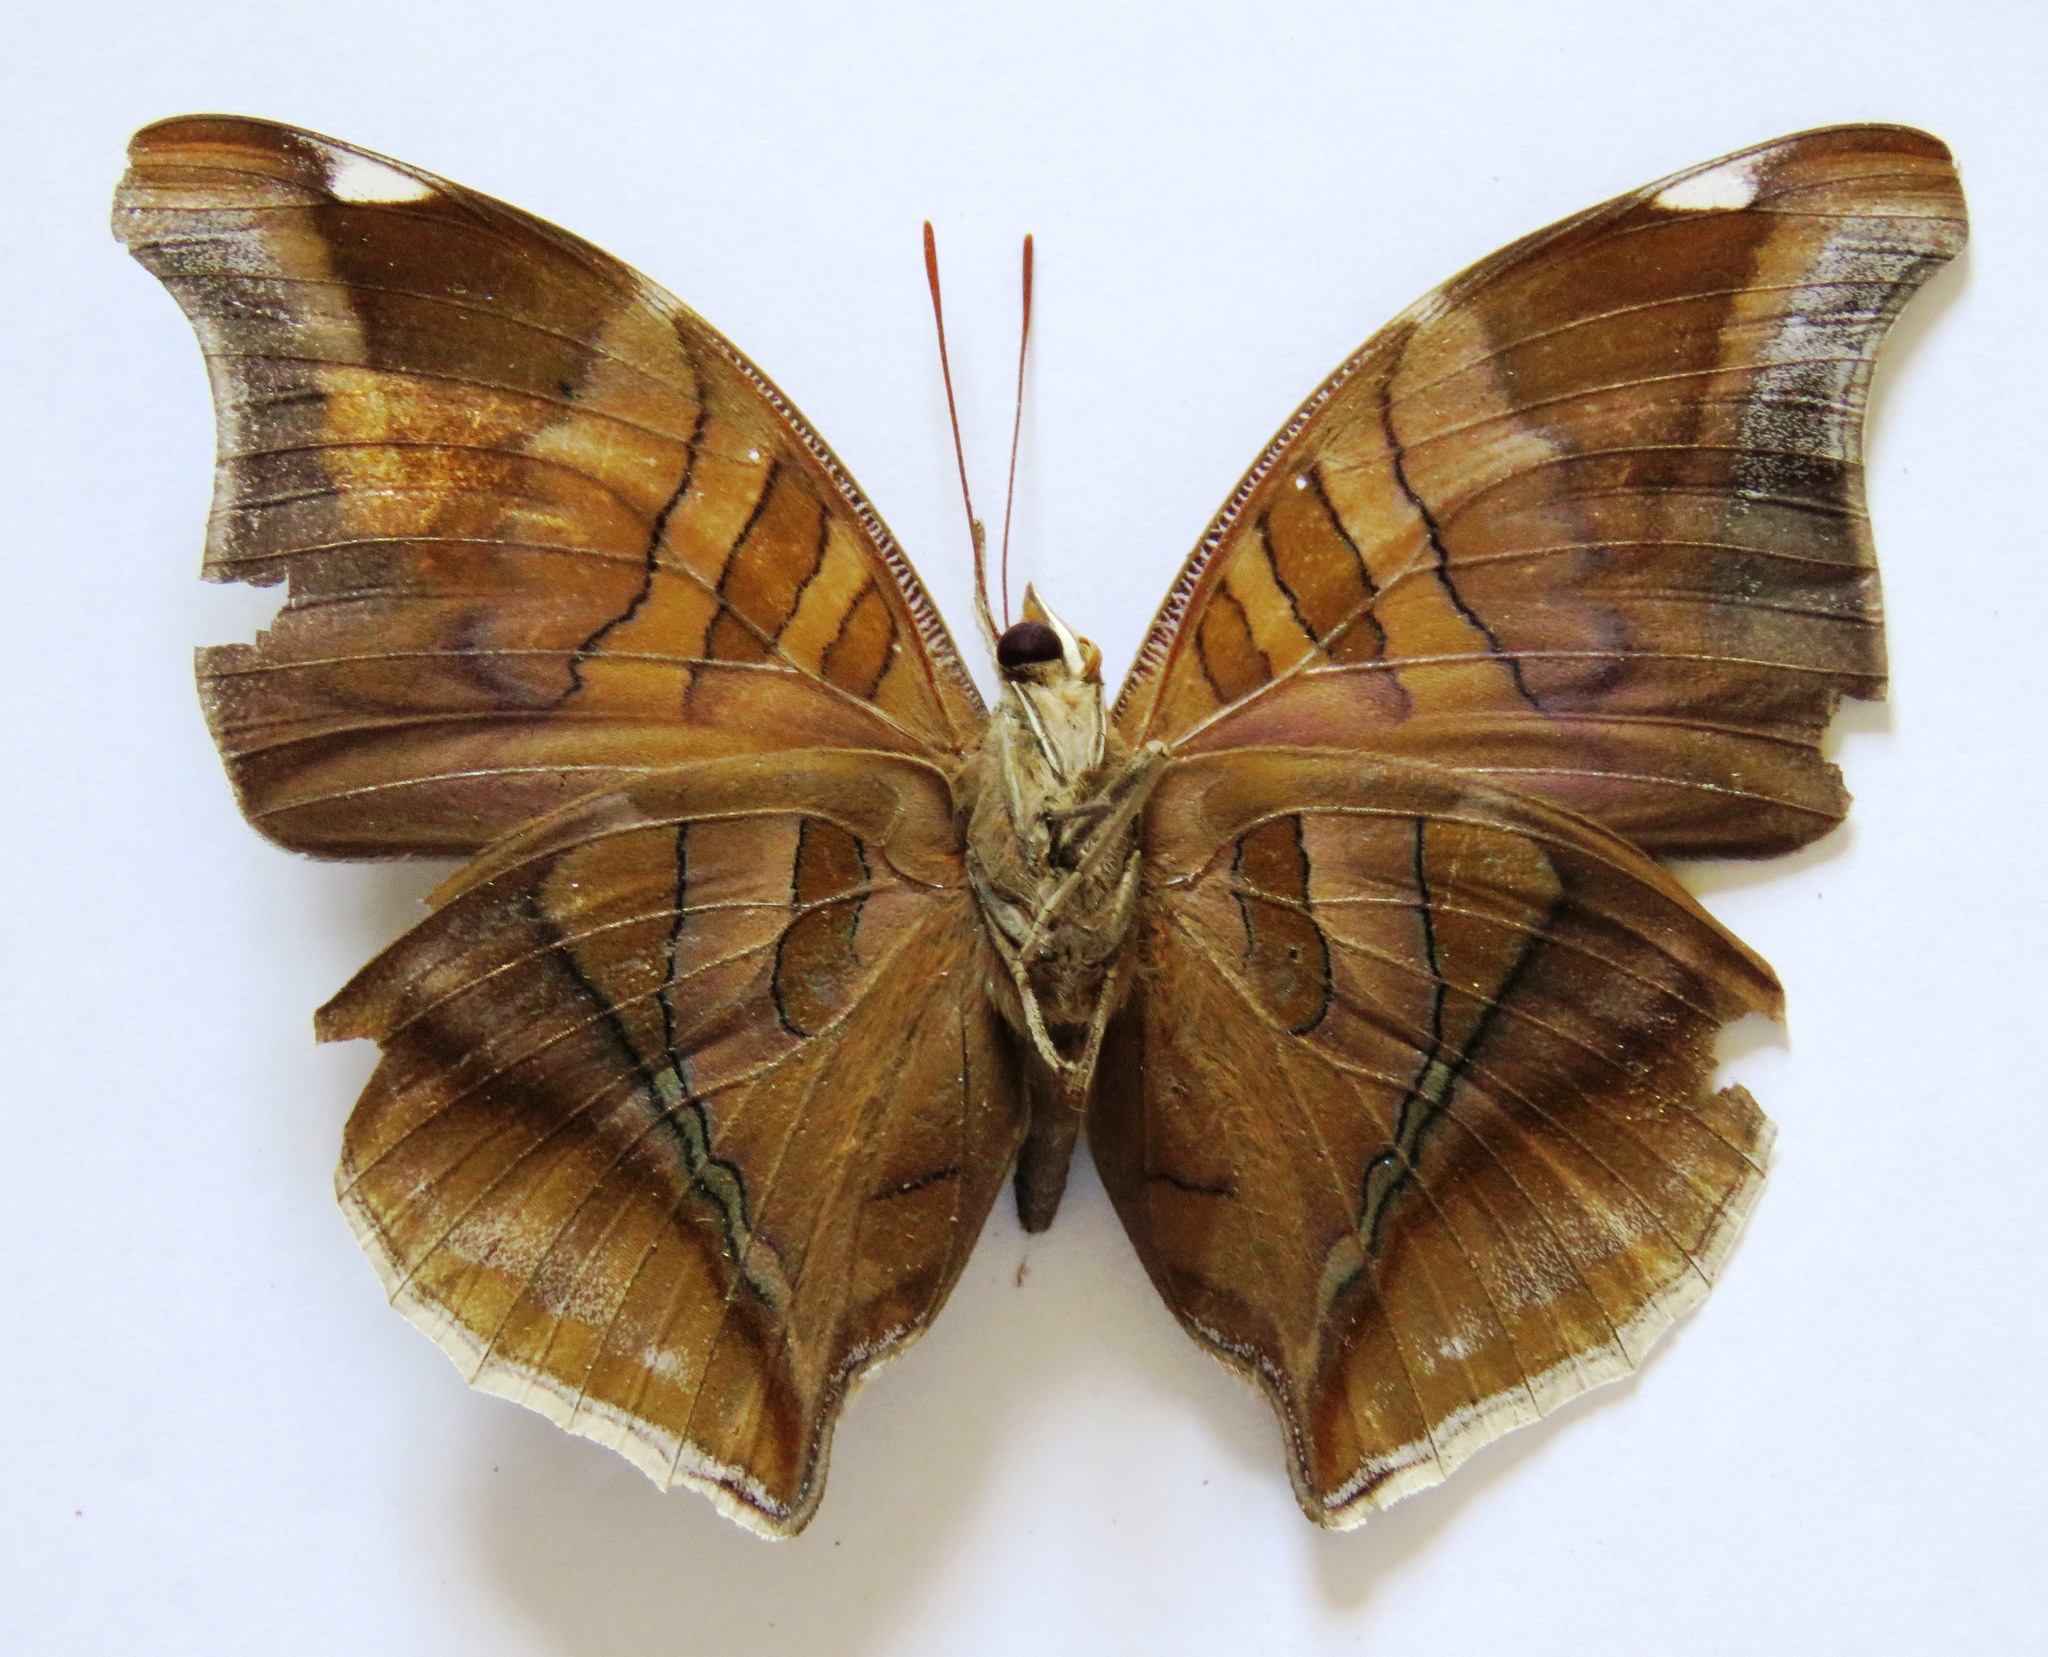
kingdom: Animalia
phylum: Arthropoda
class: Insecta
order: Lepidoptera
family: Nymphalidae
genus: Historis
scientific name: Historis odius
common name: Orion cecropian
